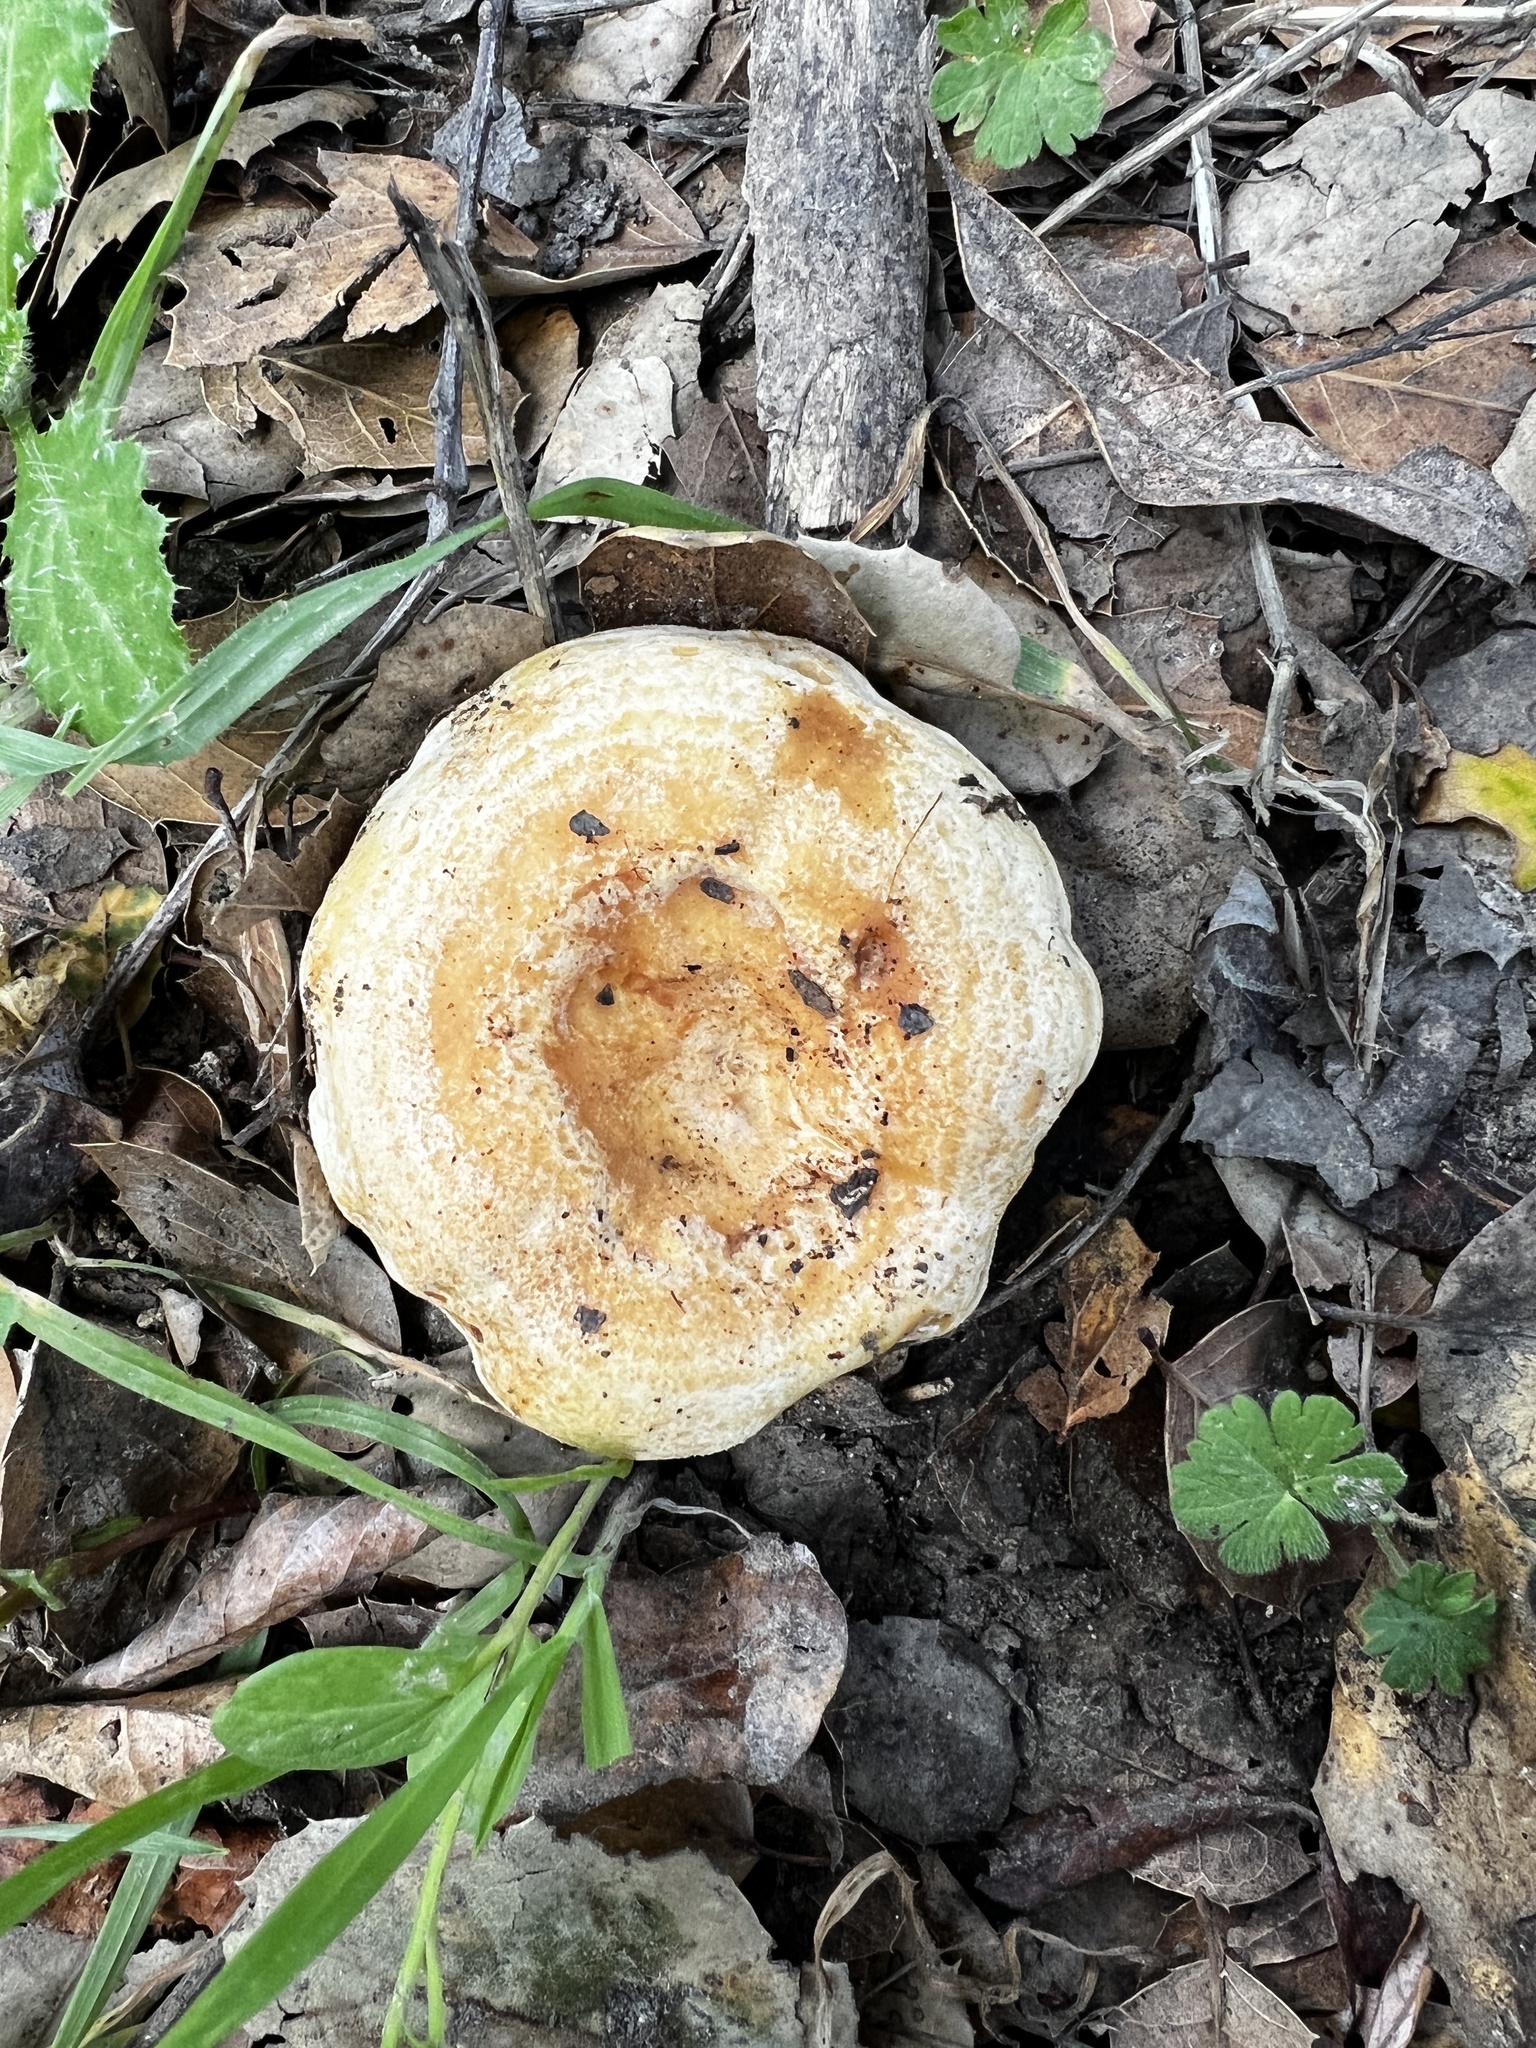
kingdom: Fungi
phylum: Basidiomycota
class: Agaricomycetes
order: Russulales
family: Russulaceae
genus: Lactarius
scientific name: Lactarius alnicola
